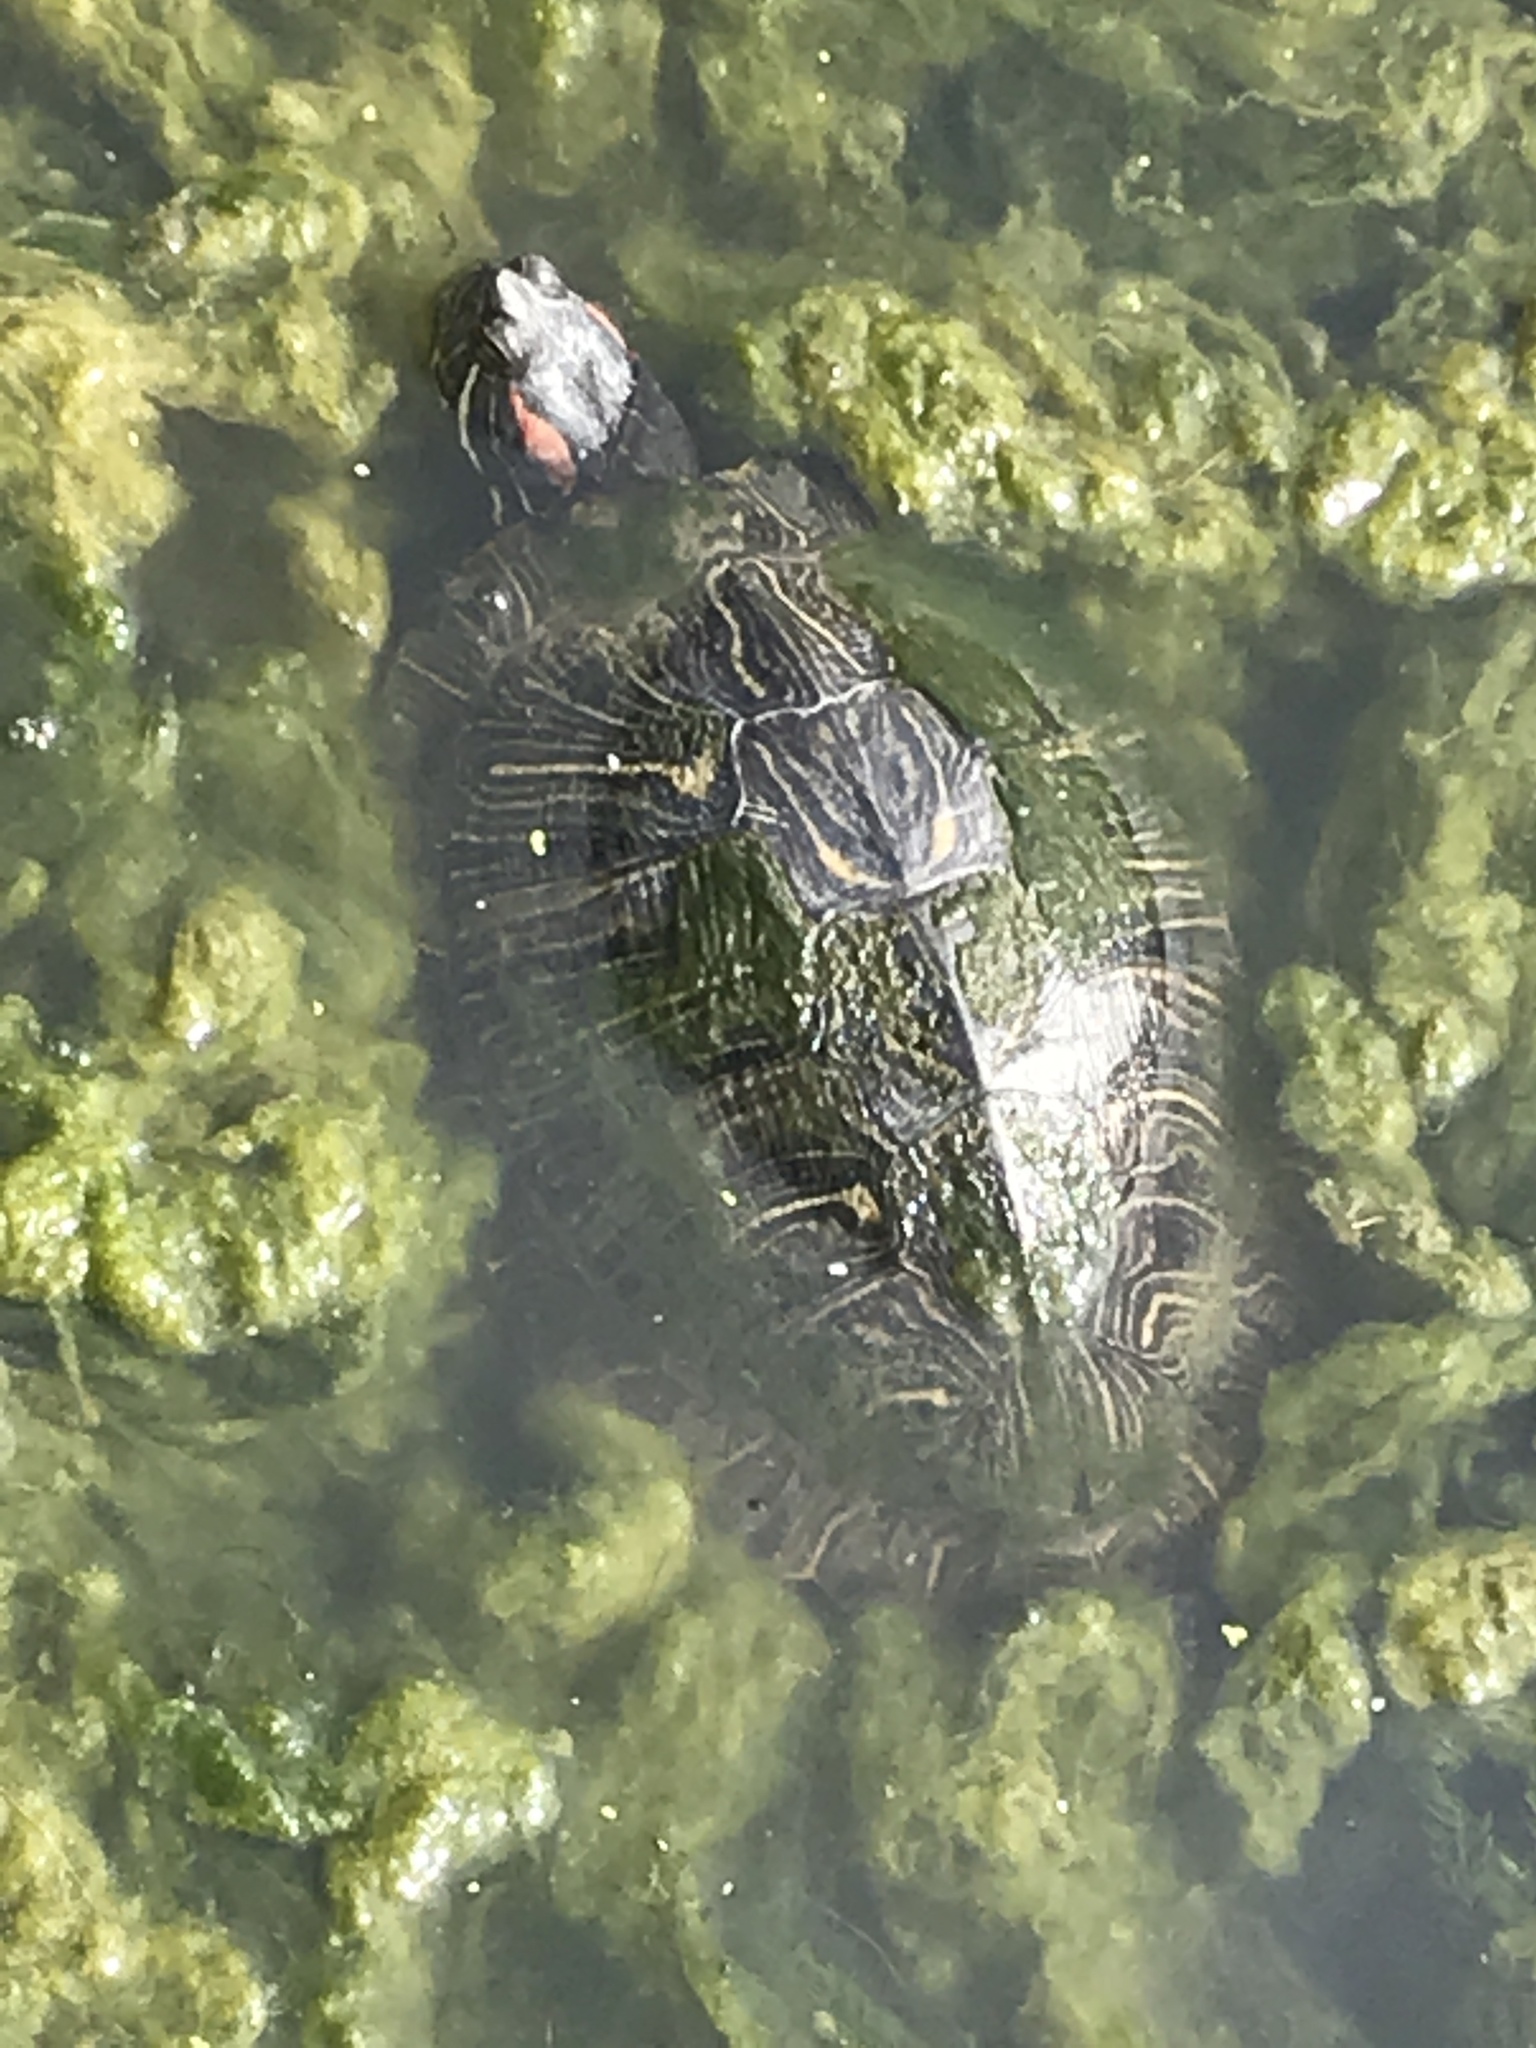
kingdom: Animalia
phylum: Chordata
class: Testudines
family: Emydidae
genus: Trachemys
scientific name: Trachemys scripta
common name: Slider
